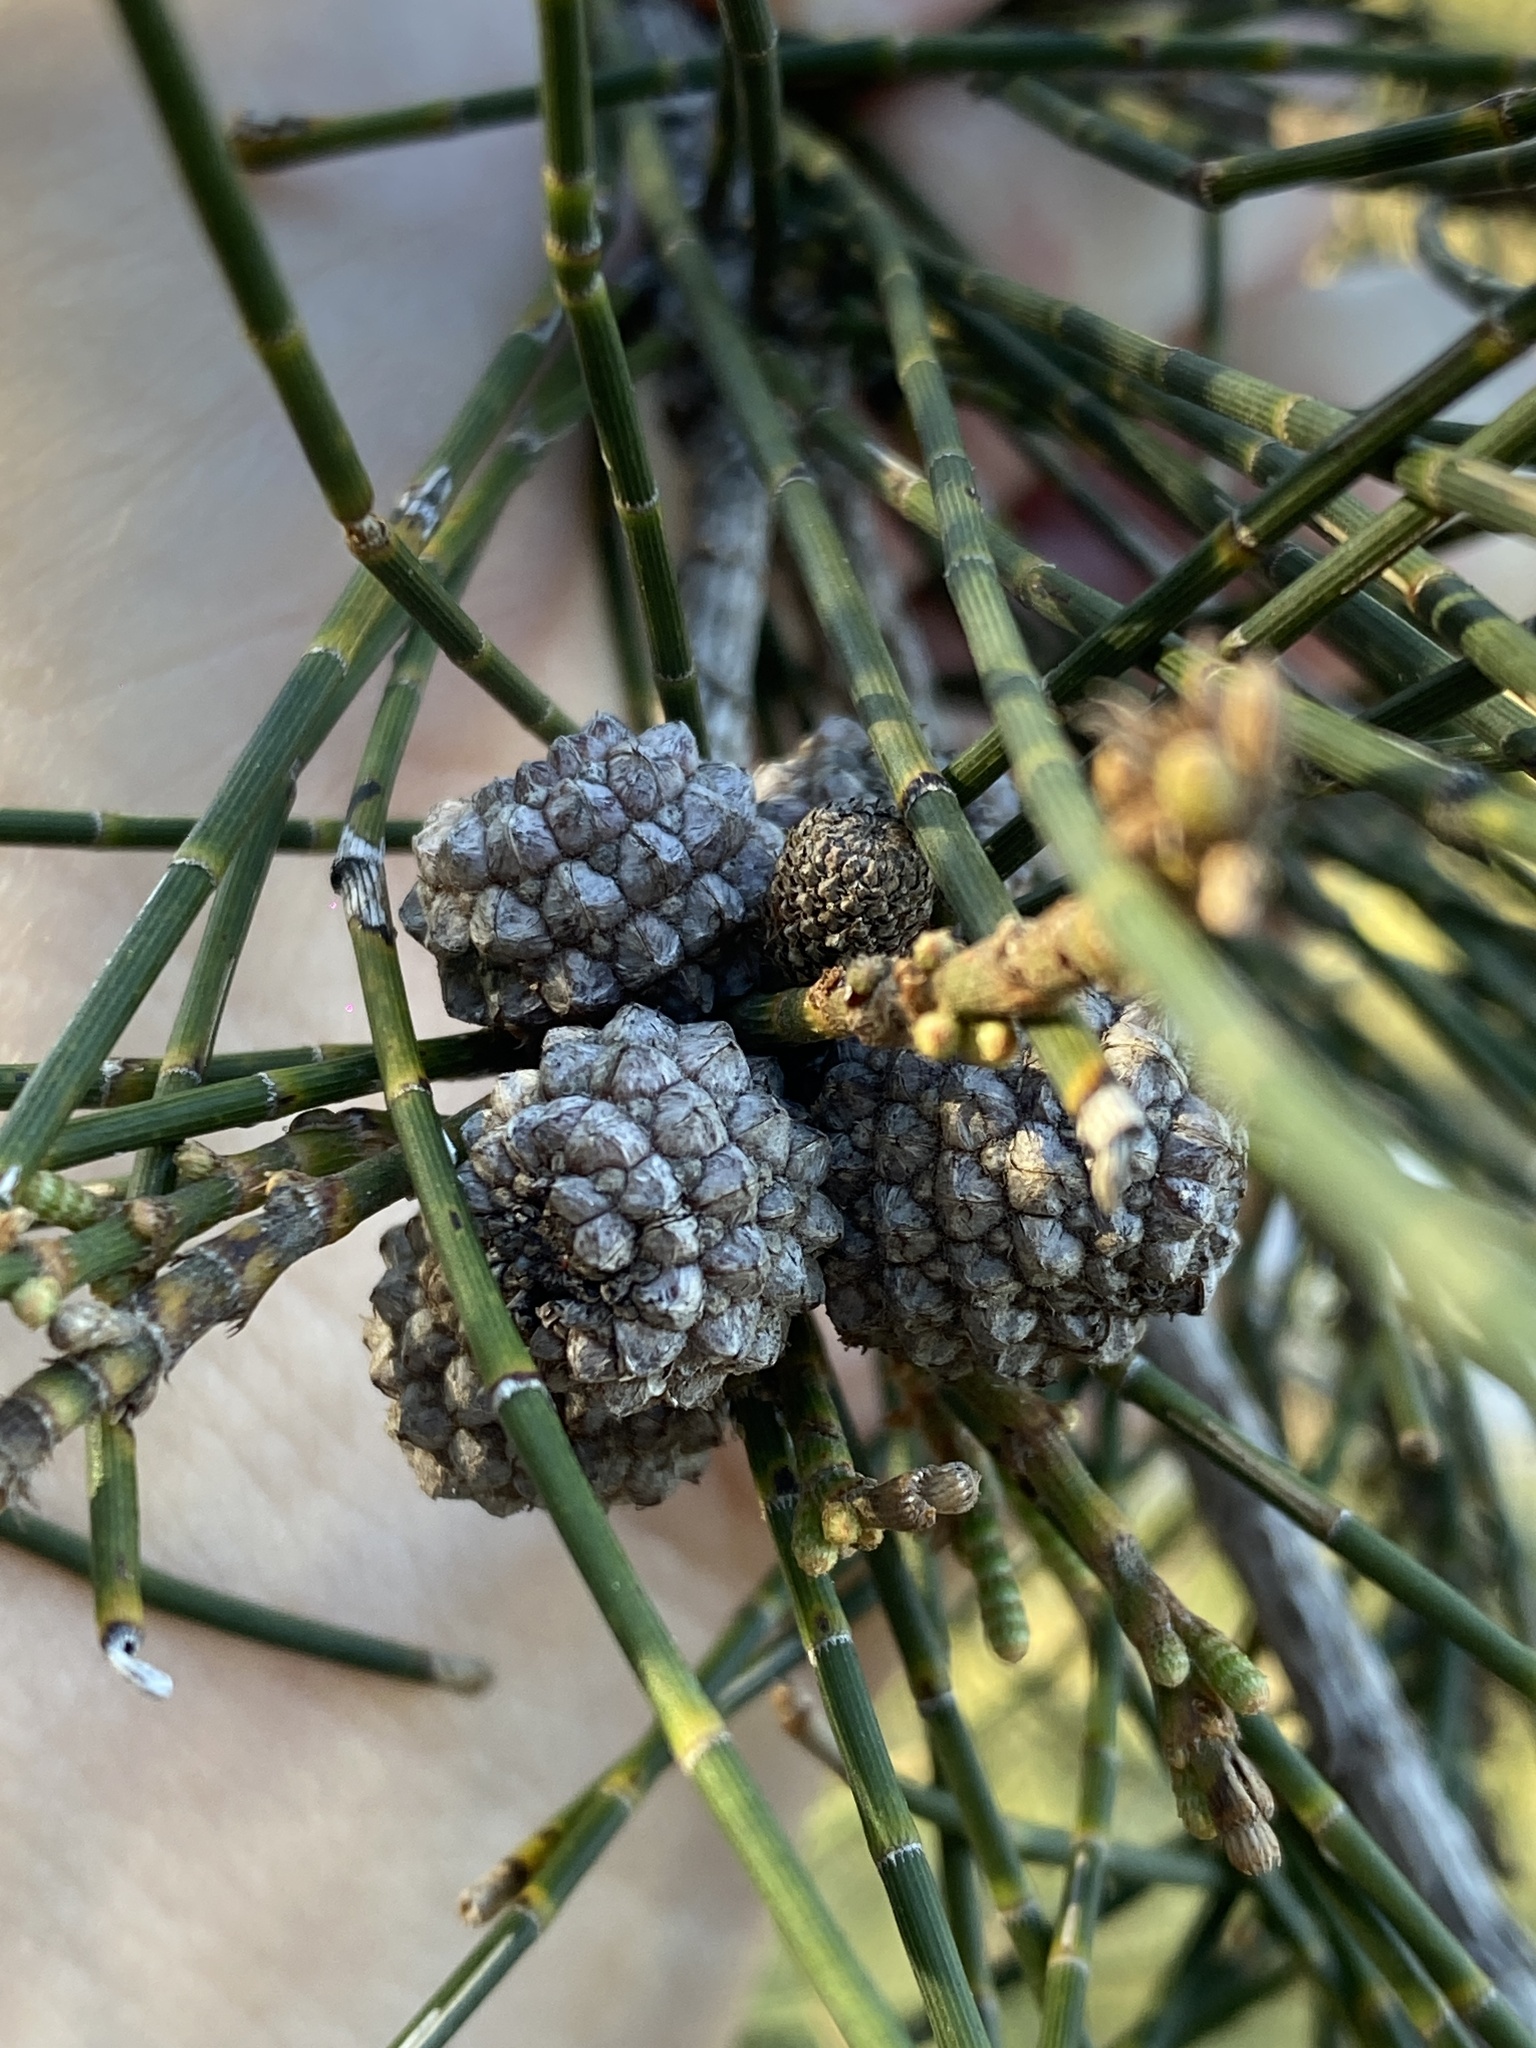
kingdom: Plantae
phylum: Tracheophyta
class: Magnoliopsida
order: Fagales
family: Casuarinaceae
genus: Casuarina
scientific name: Casuarina glauca
